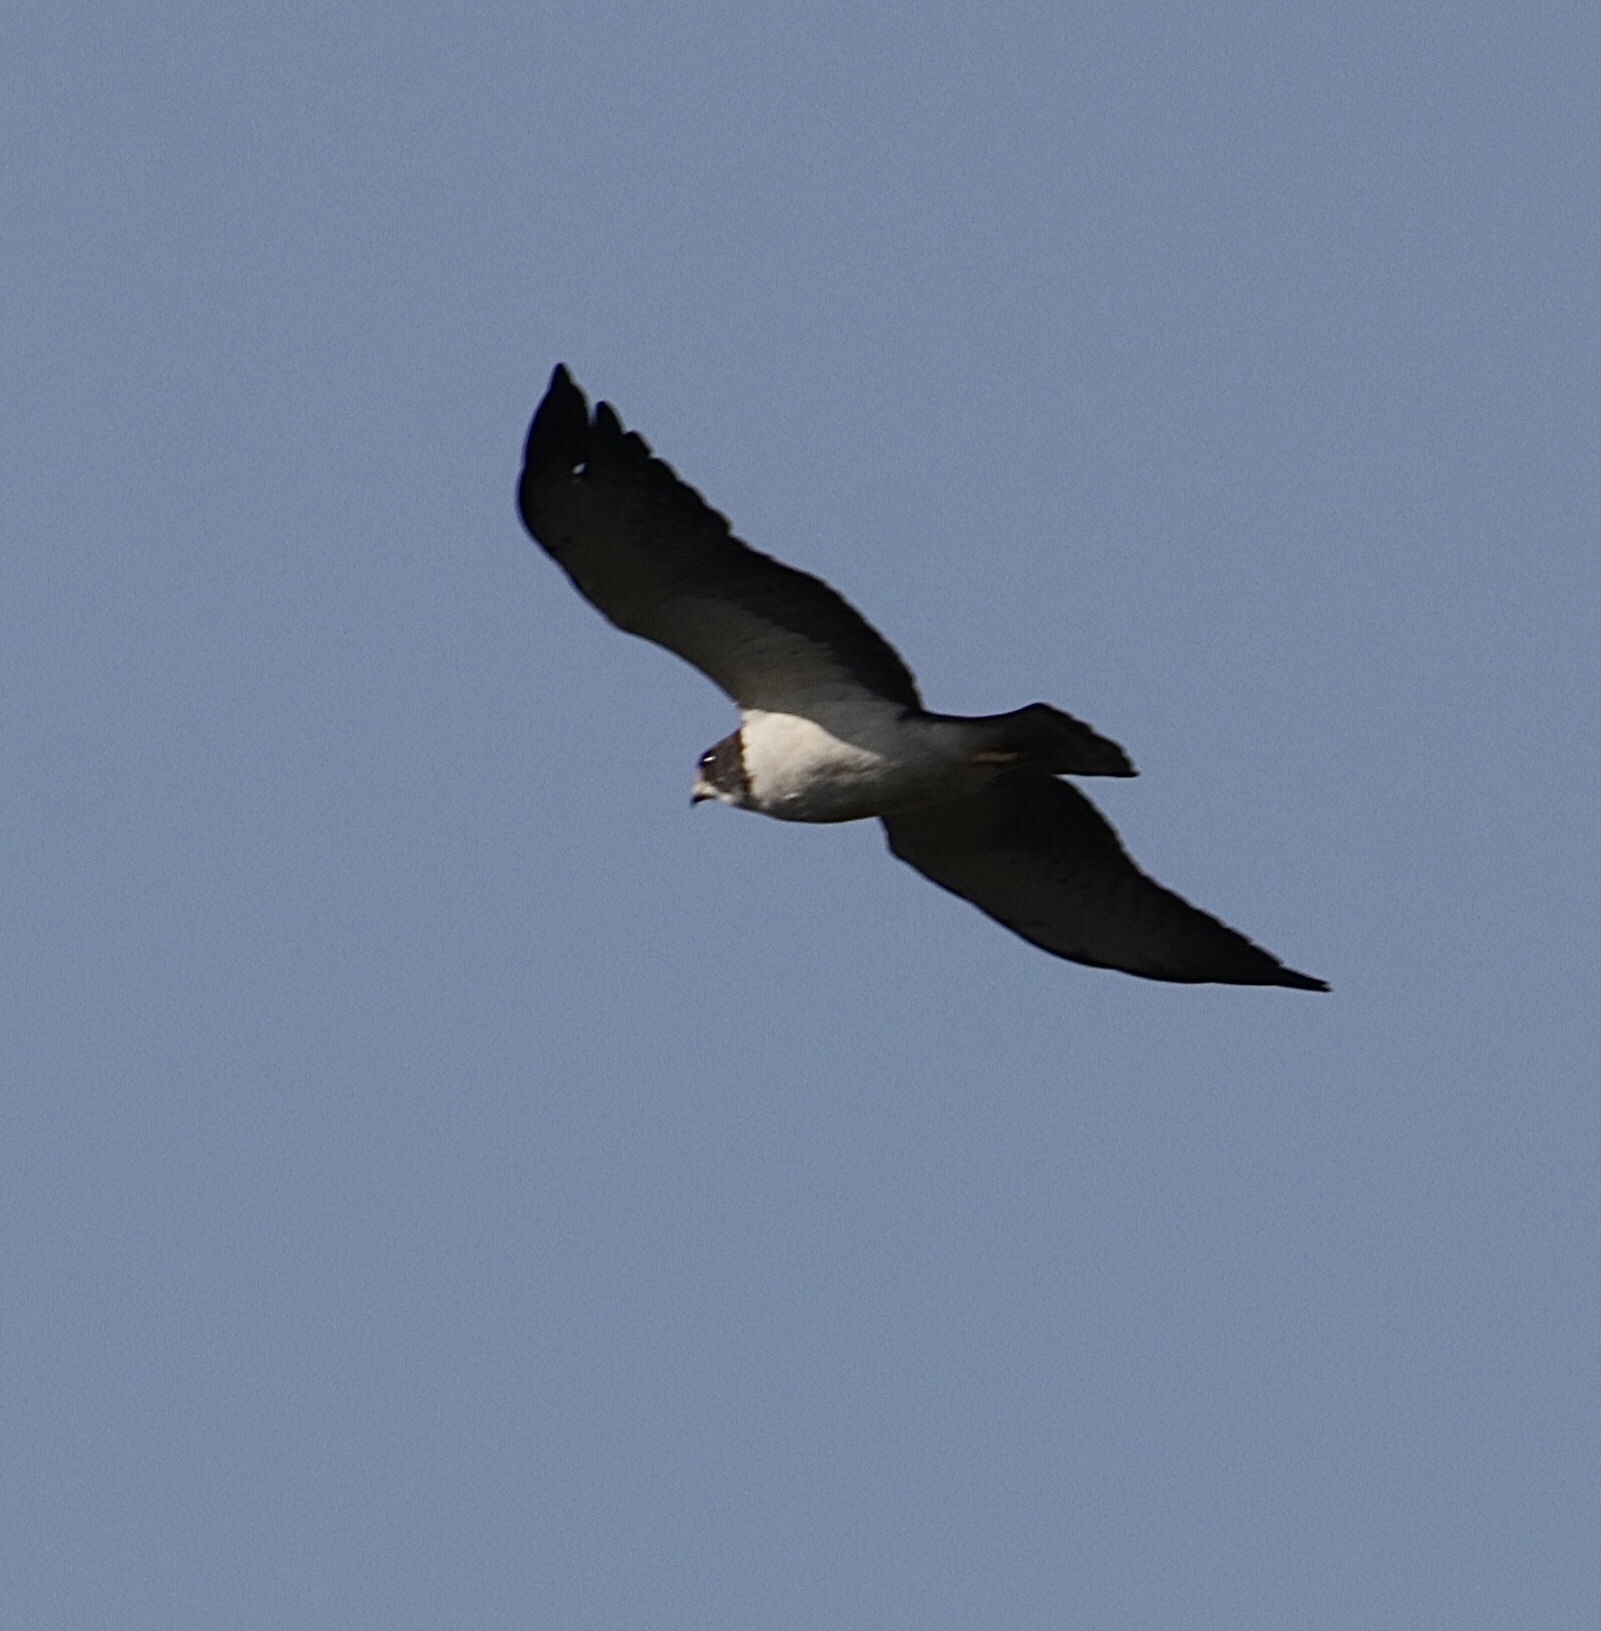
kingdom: Animalia
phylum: Chordata
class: Aves
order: Accipitriformes
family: Accipitridae
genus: Buteo
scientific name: Buteo brachyurus
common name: Short-tailed hawk
